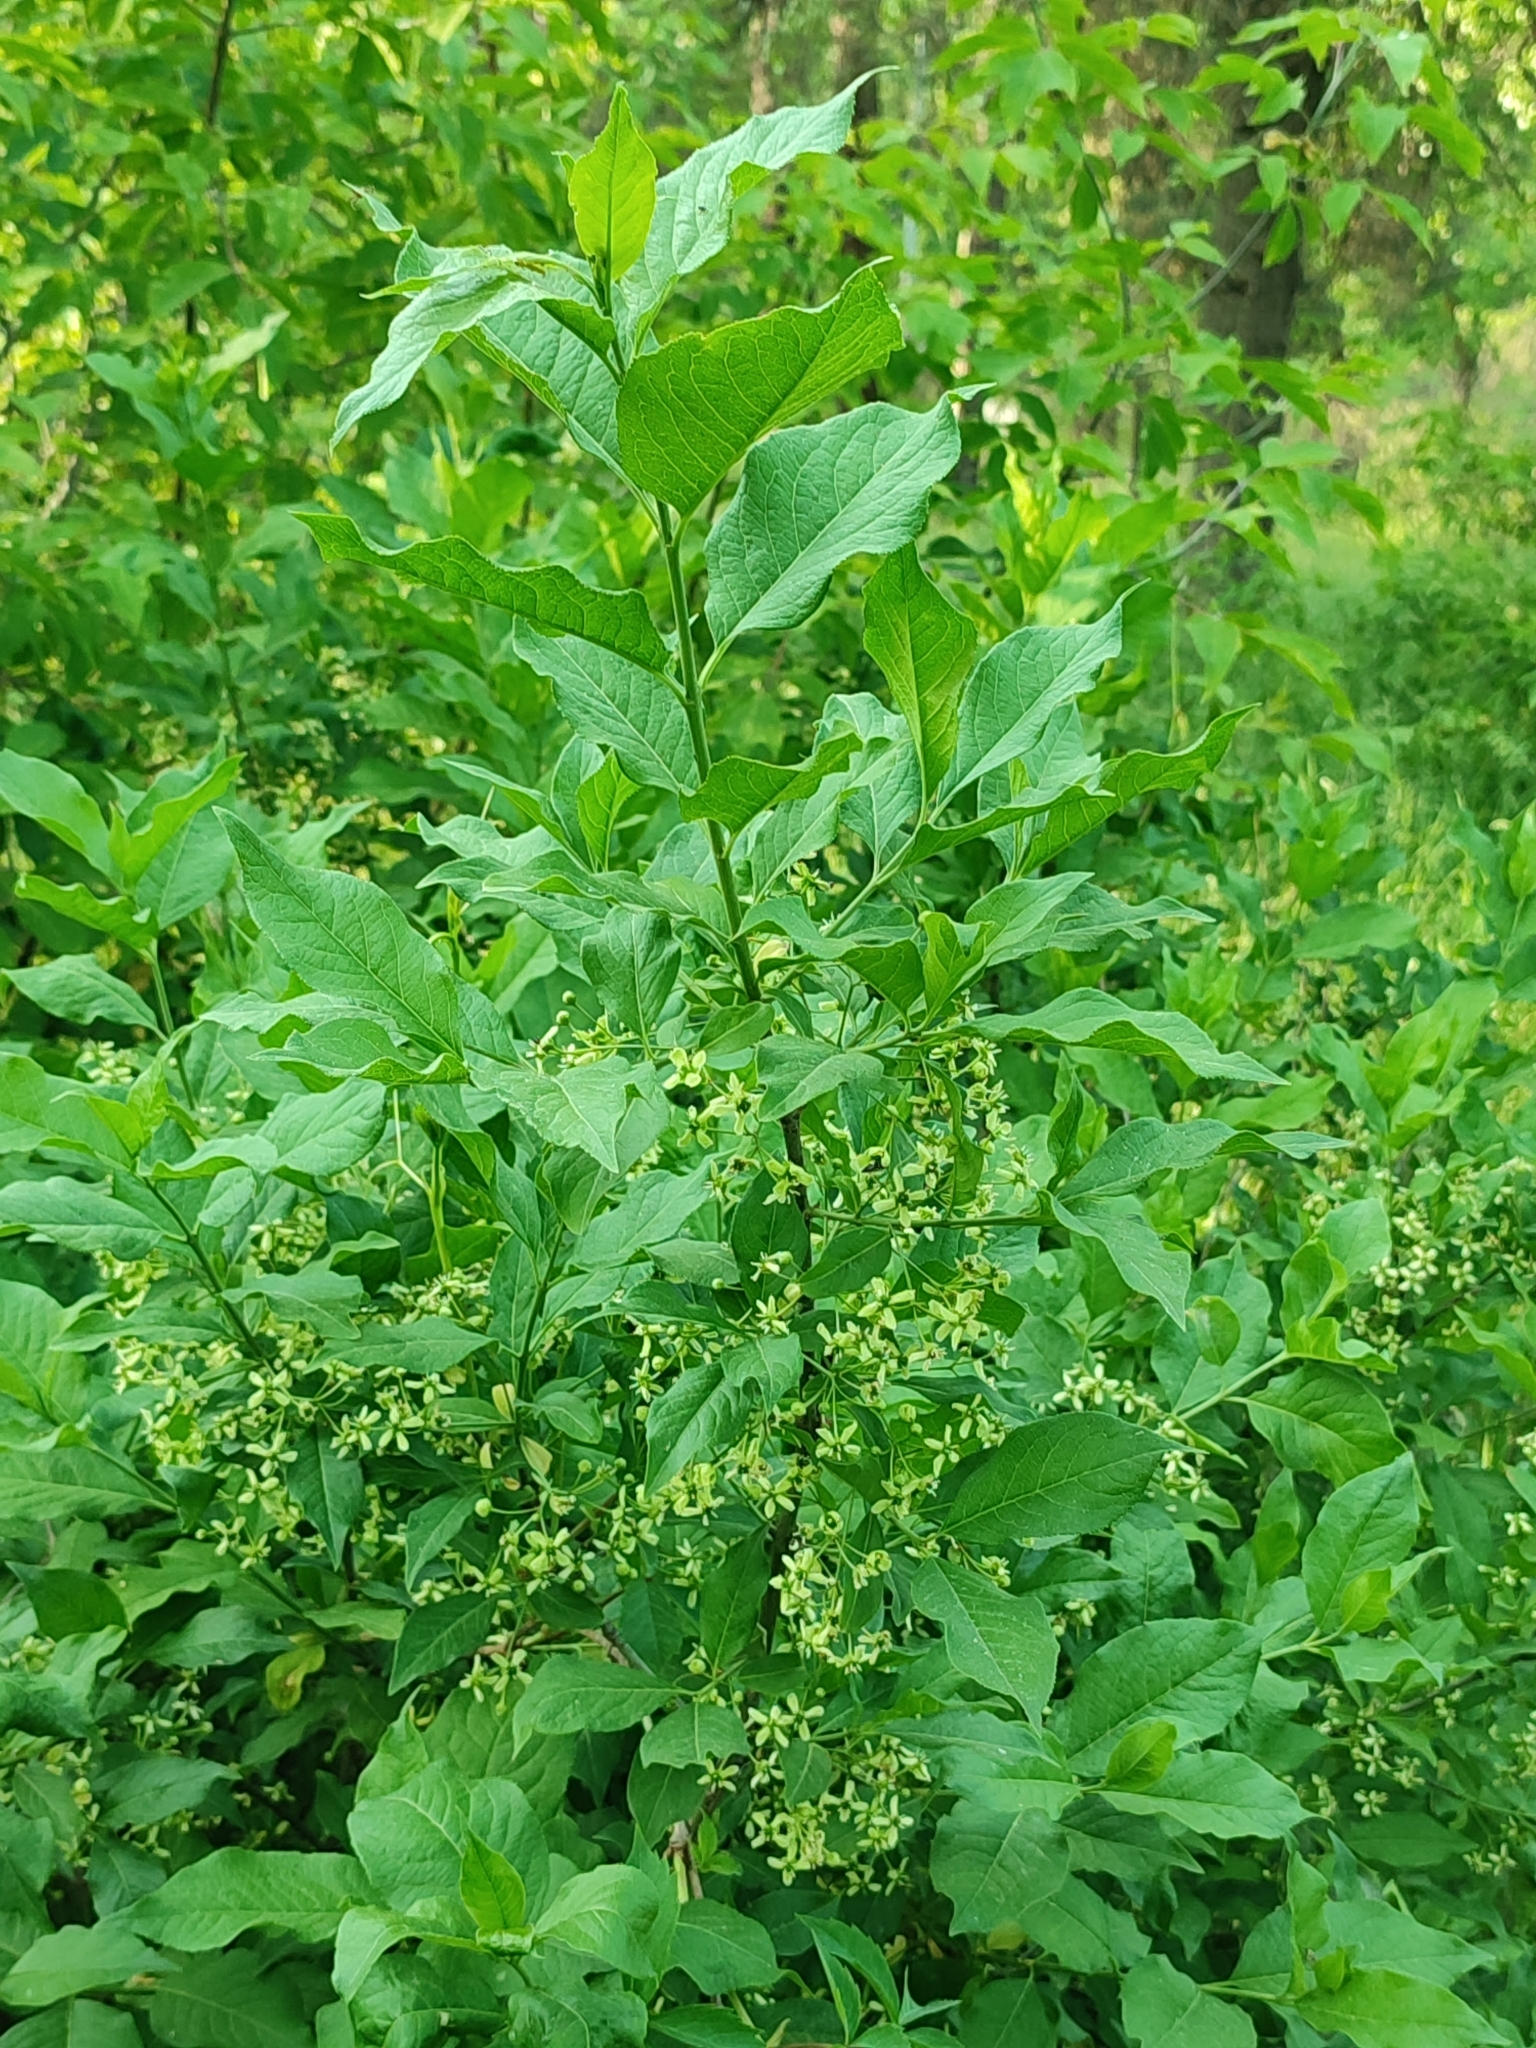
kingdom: Plantae
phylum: Tracheophyta
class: Magnoliopsida
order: Celastrales
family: Celastraceae
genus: Euonymus
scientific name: Euonymus europaeus
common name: Spindle
